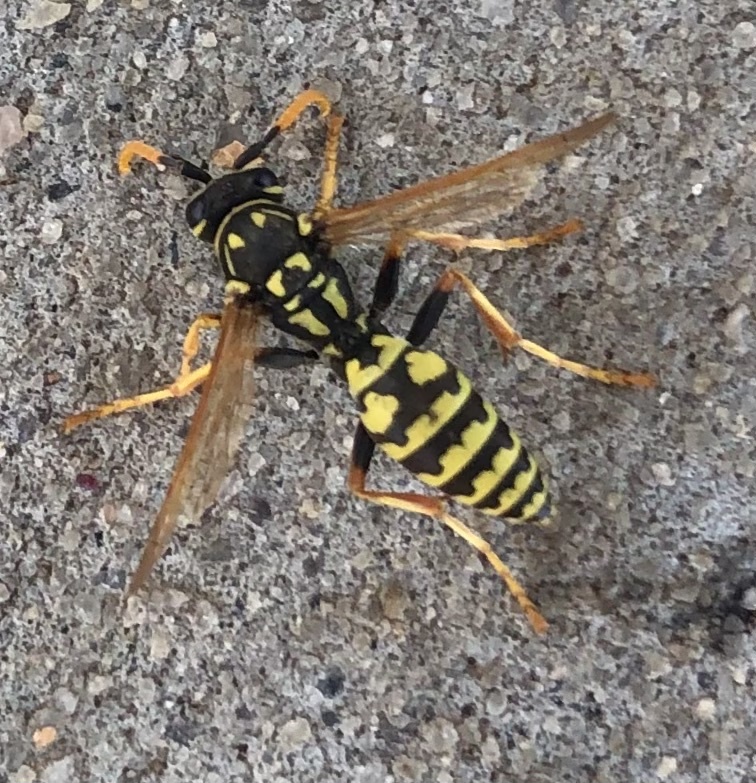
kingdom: Animalia
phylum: Arthropoda
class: Insecta
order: Hymenoptera
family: Eumenidae
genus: Polistes
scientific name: Polistes dominula
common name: Paper wasp
